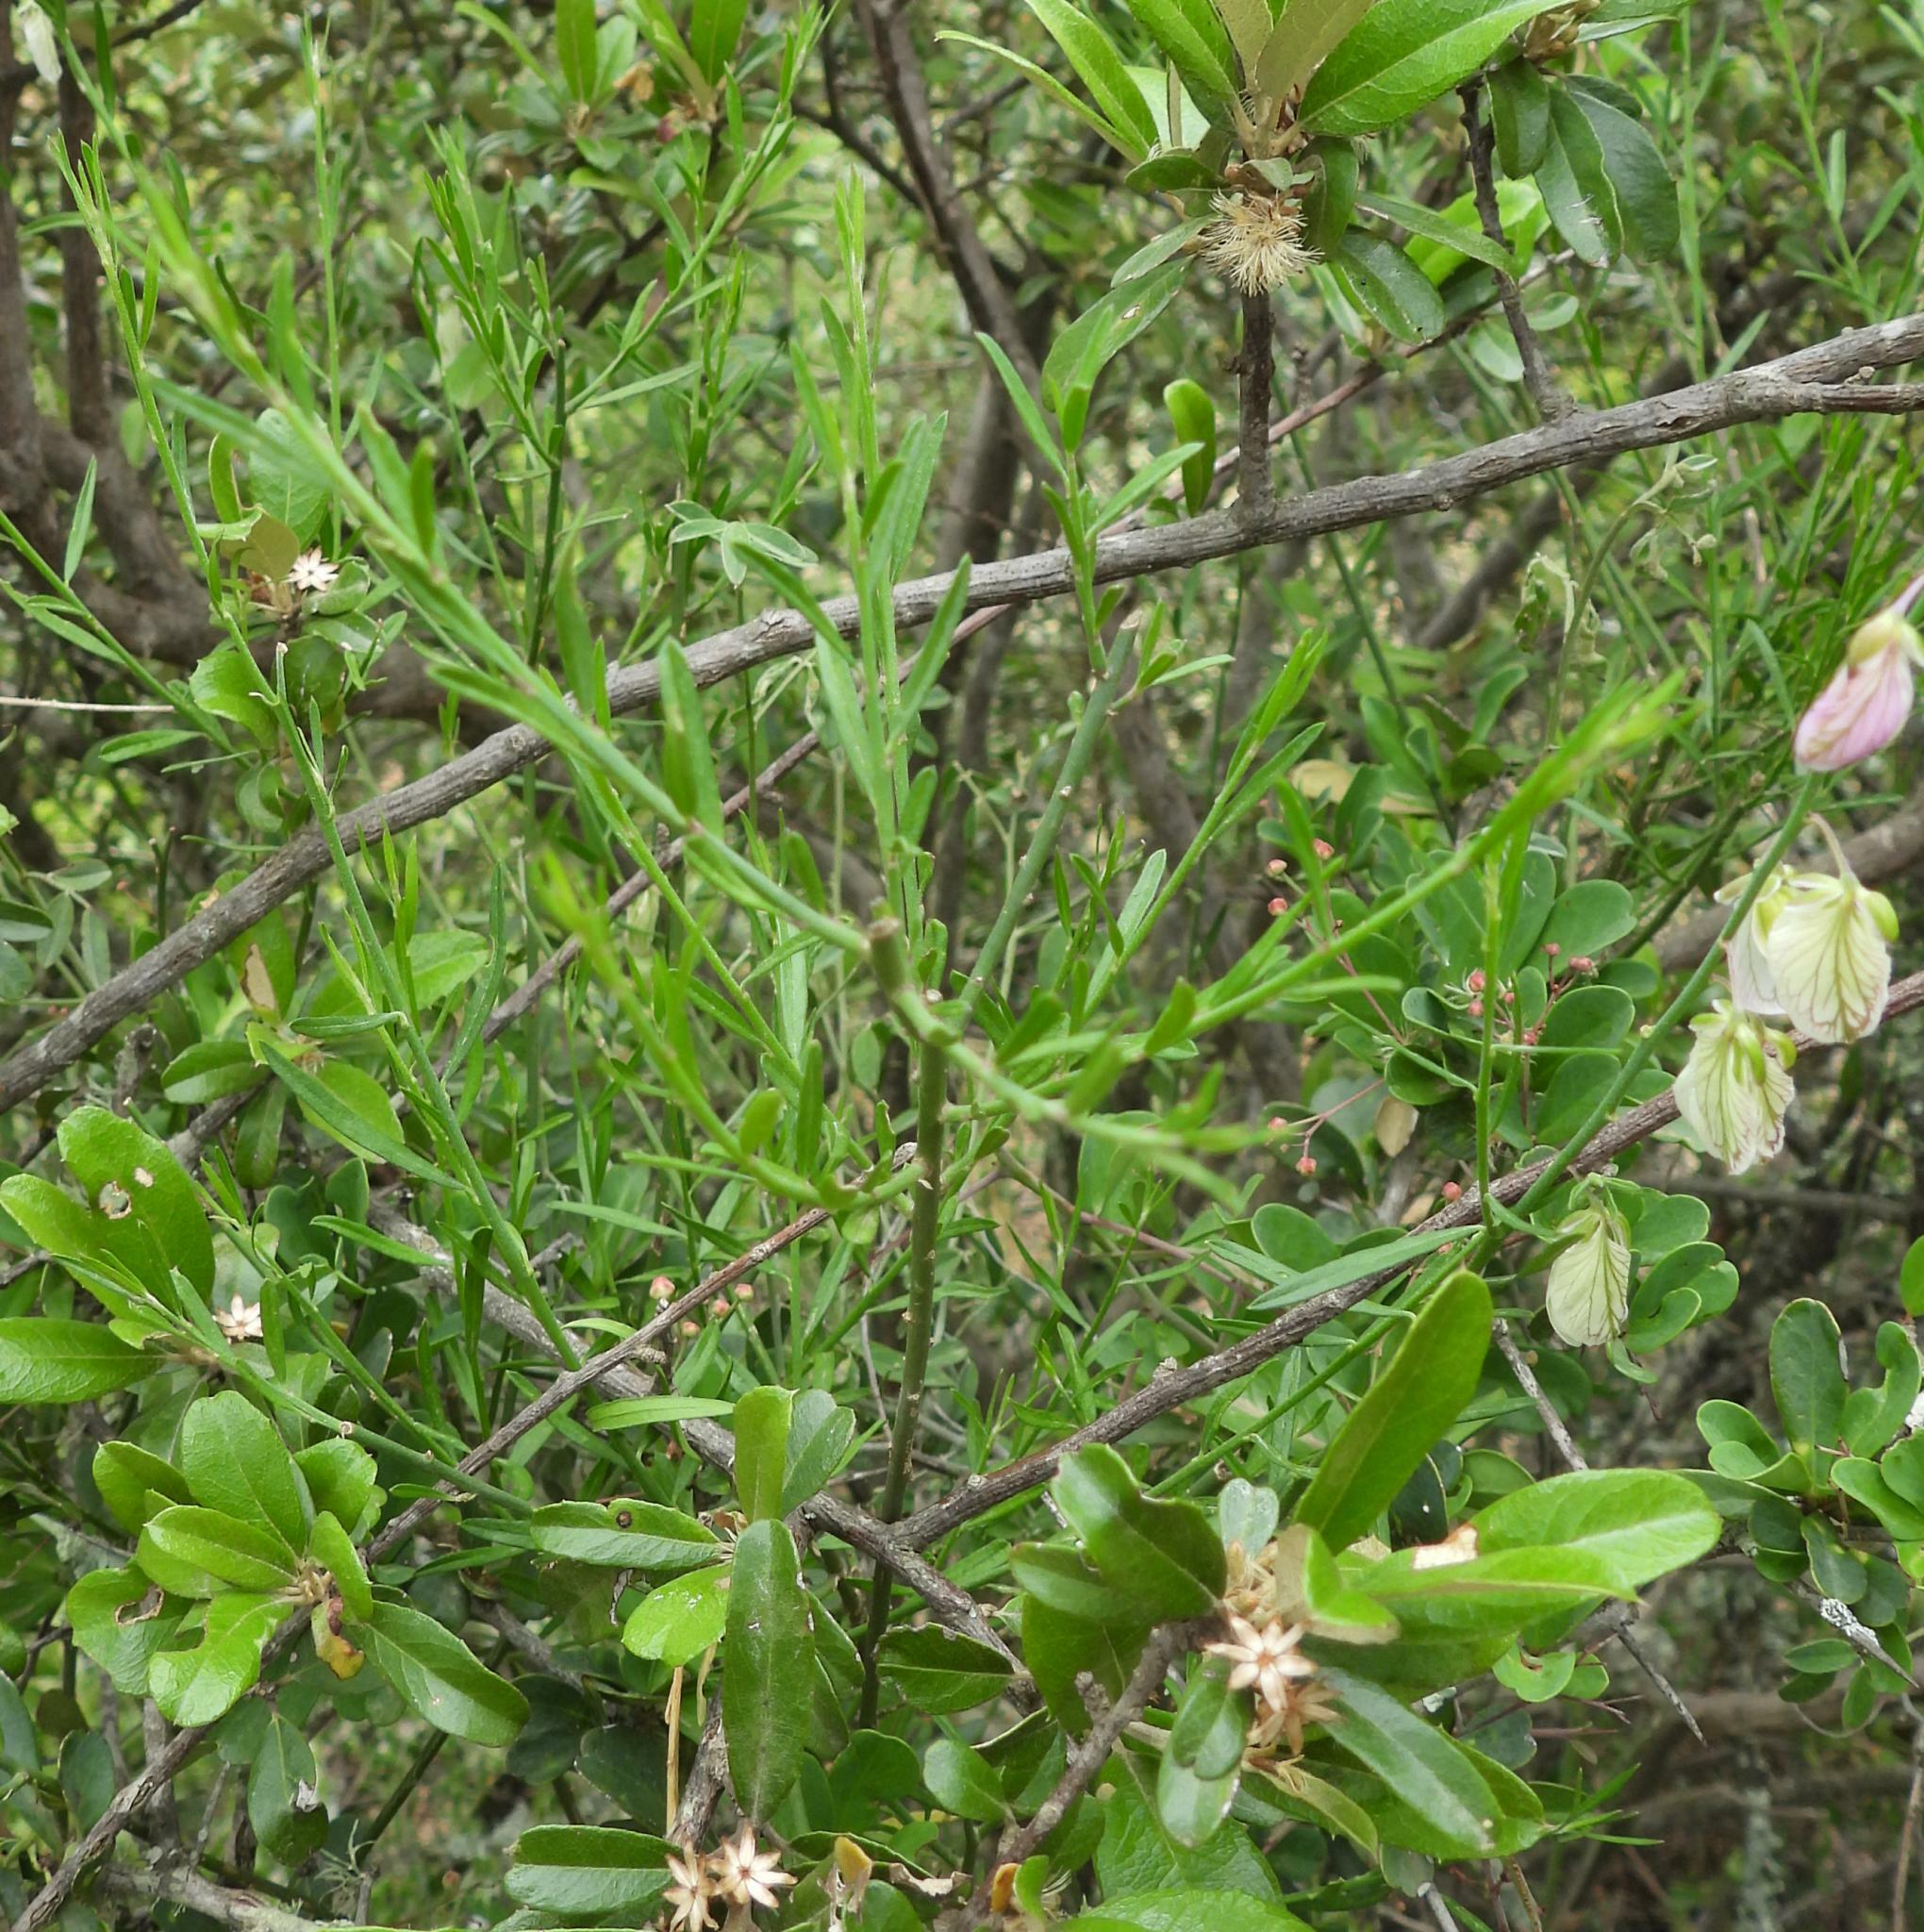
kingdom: Plantae
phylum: Tracheophyta
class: Magnoliopsida
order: Fabales
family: Polygalaceae
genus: Polygala
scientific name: Polygala virgata
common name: Milkwort
